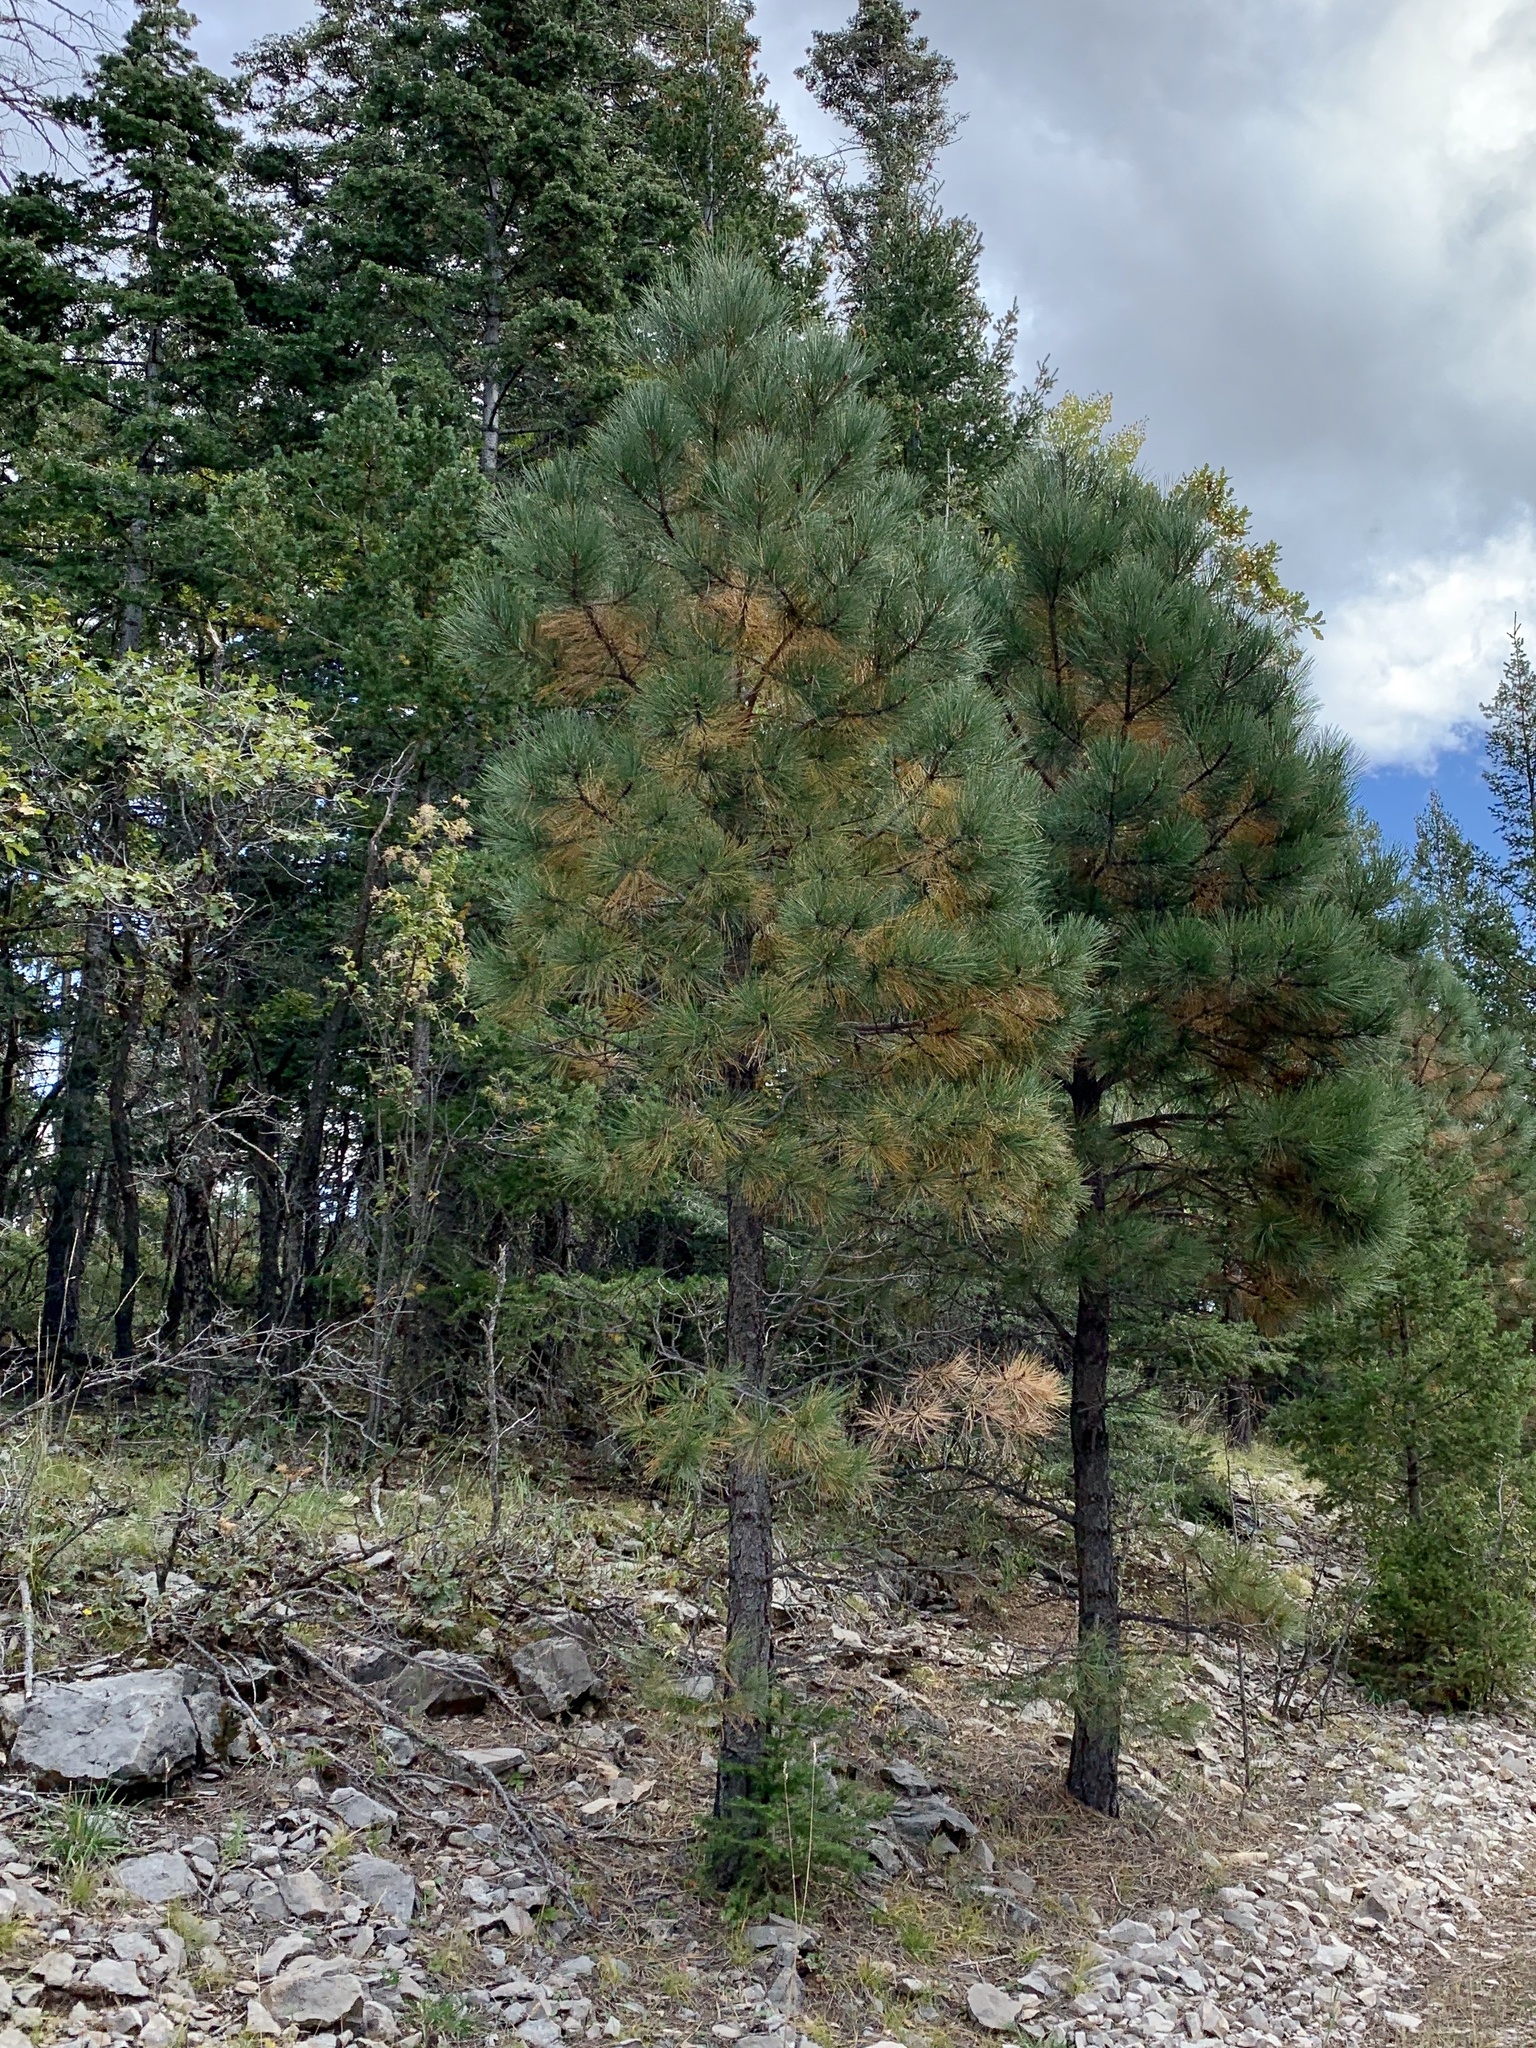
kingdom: Plantae
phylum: Tracheophyta
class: Pinopsida
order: Pinales
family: Pinaceae
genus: Pinus
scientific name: Pinus ponderosa
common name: Western yellow-pine
